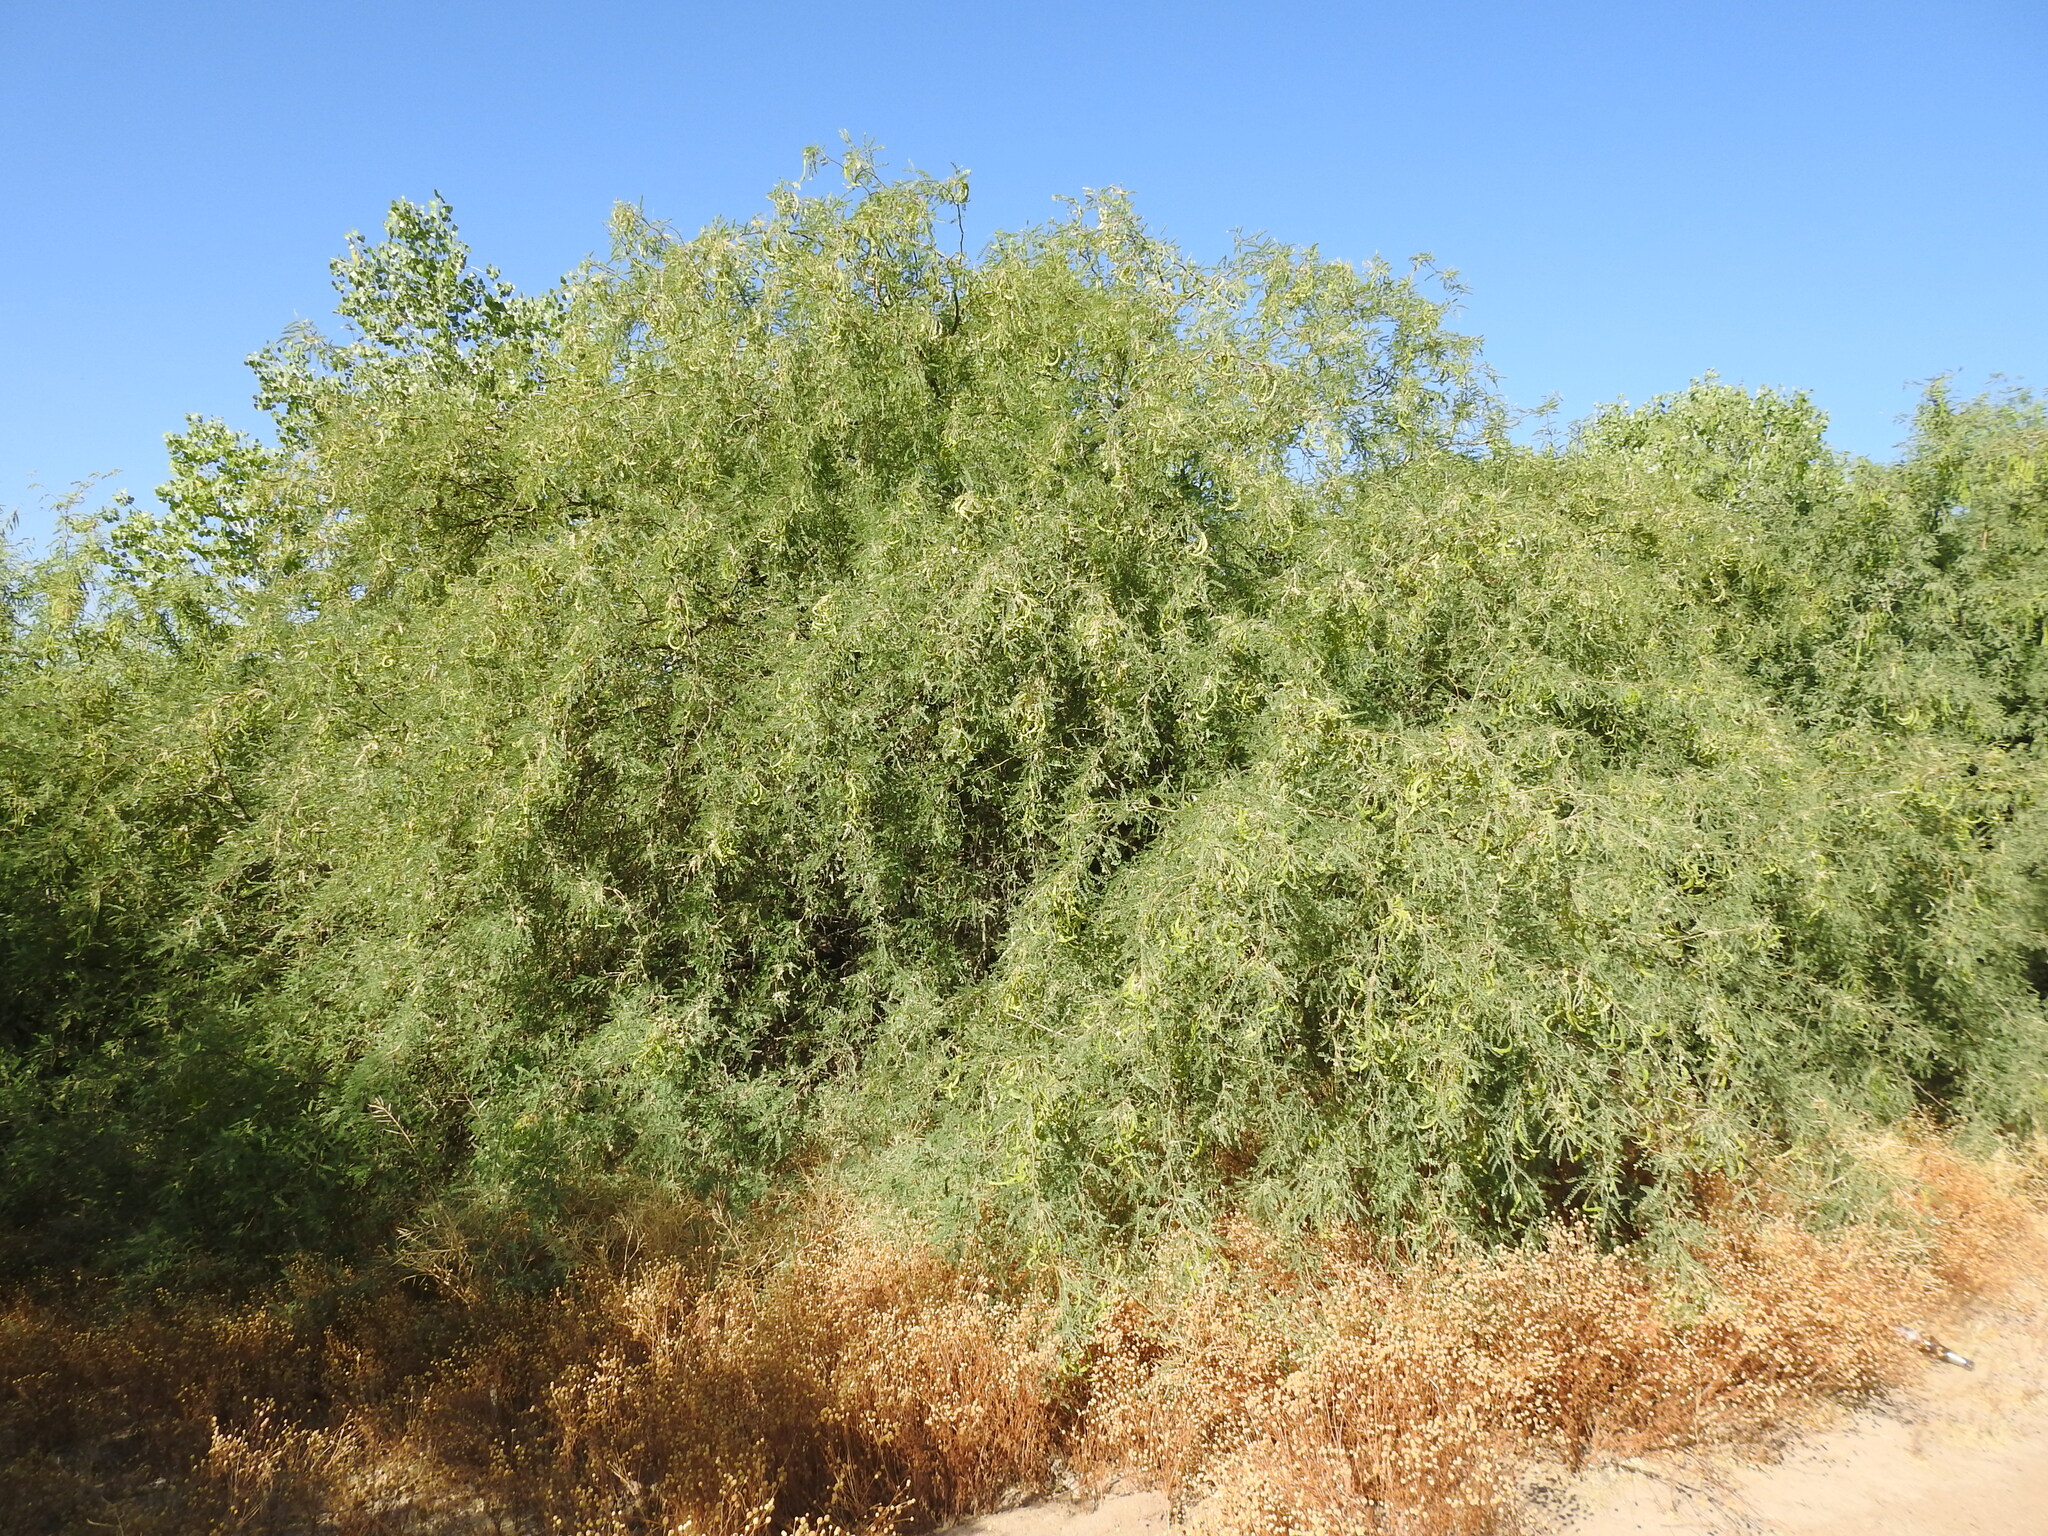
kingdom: Plantae
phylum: Tracheophyta
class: Magnoliopsida
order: Fabales
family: Fabaceae
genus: Prosopis
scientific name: Prosopis velutina
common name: Velvet mesquite
